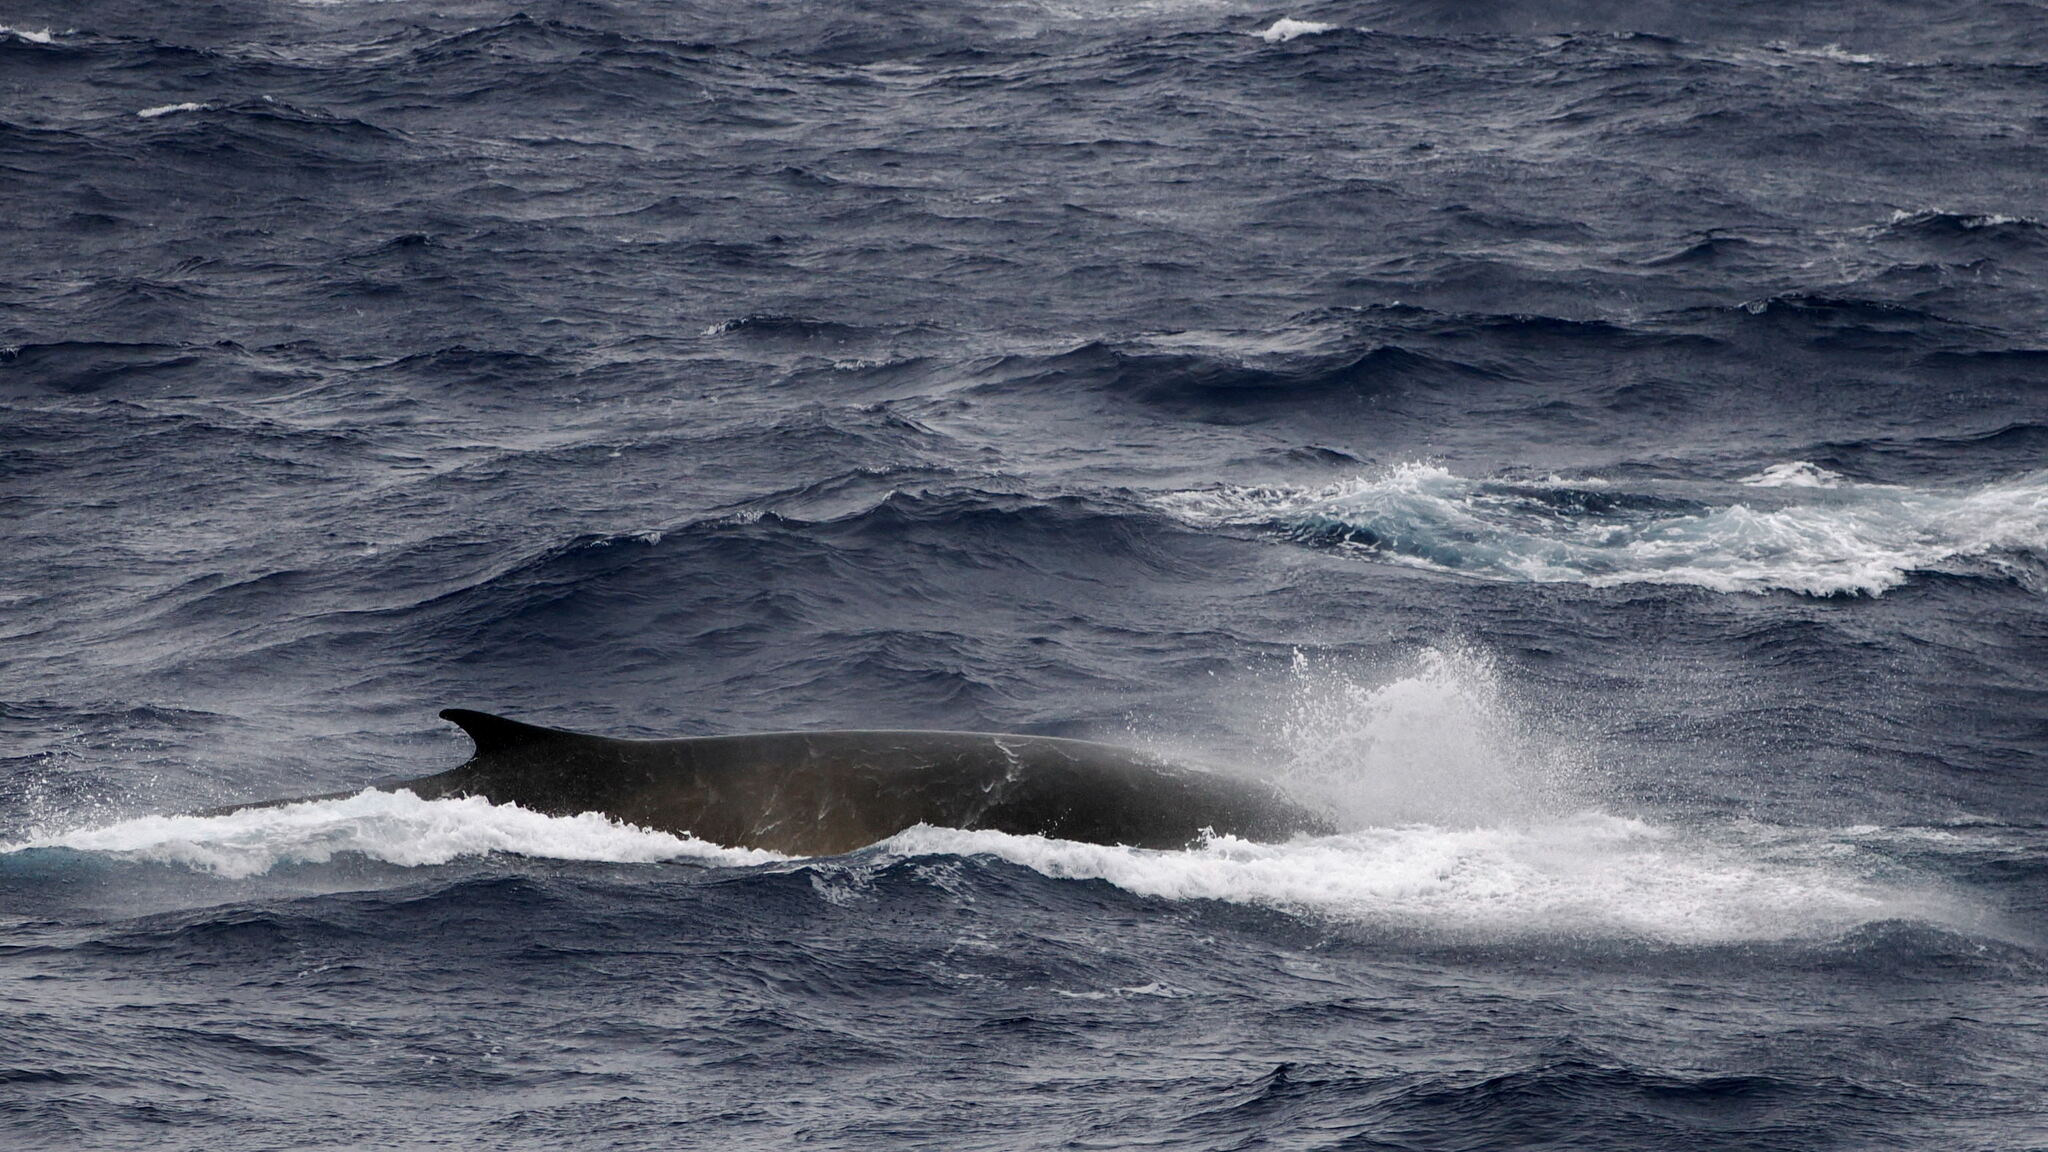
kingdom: Animalia
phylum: Chordata
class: Mammalia
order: Cetacea
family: Balaenopteridae
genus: Balaenoptera
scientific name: Balaenoptera physalus
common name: Fin whale
